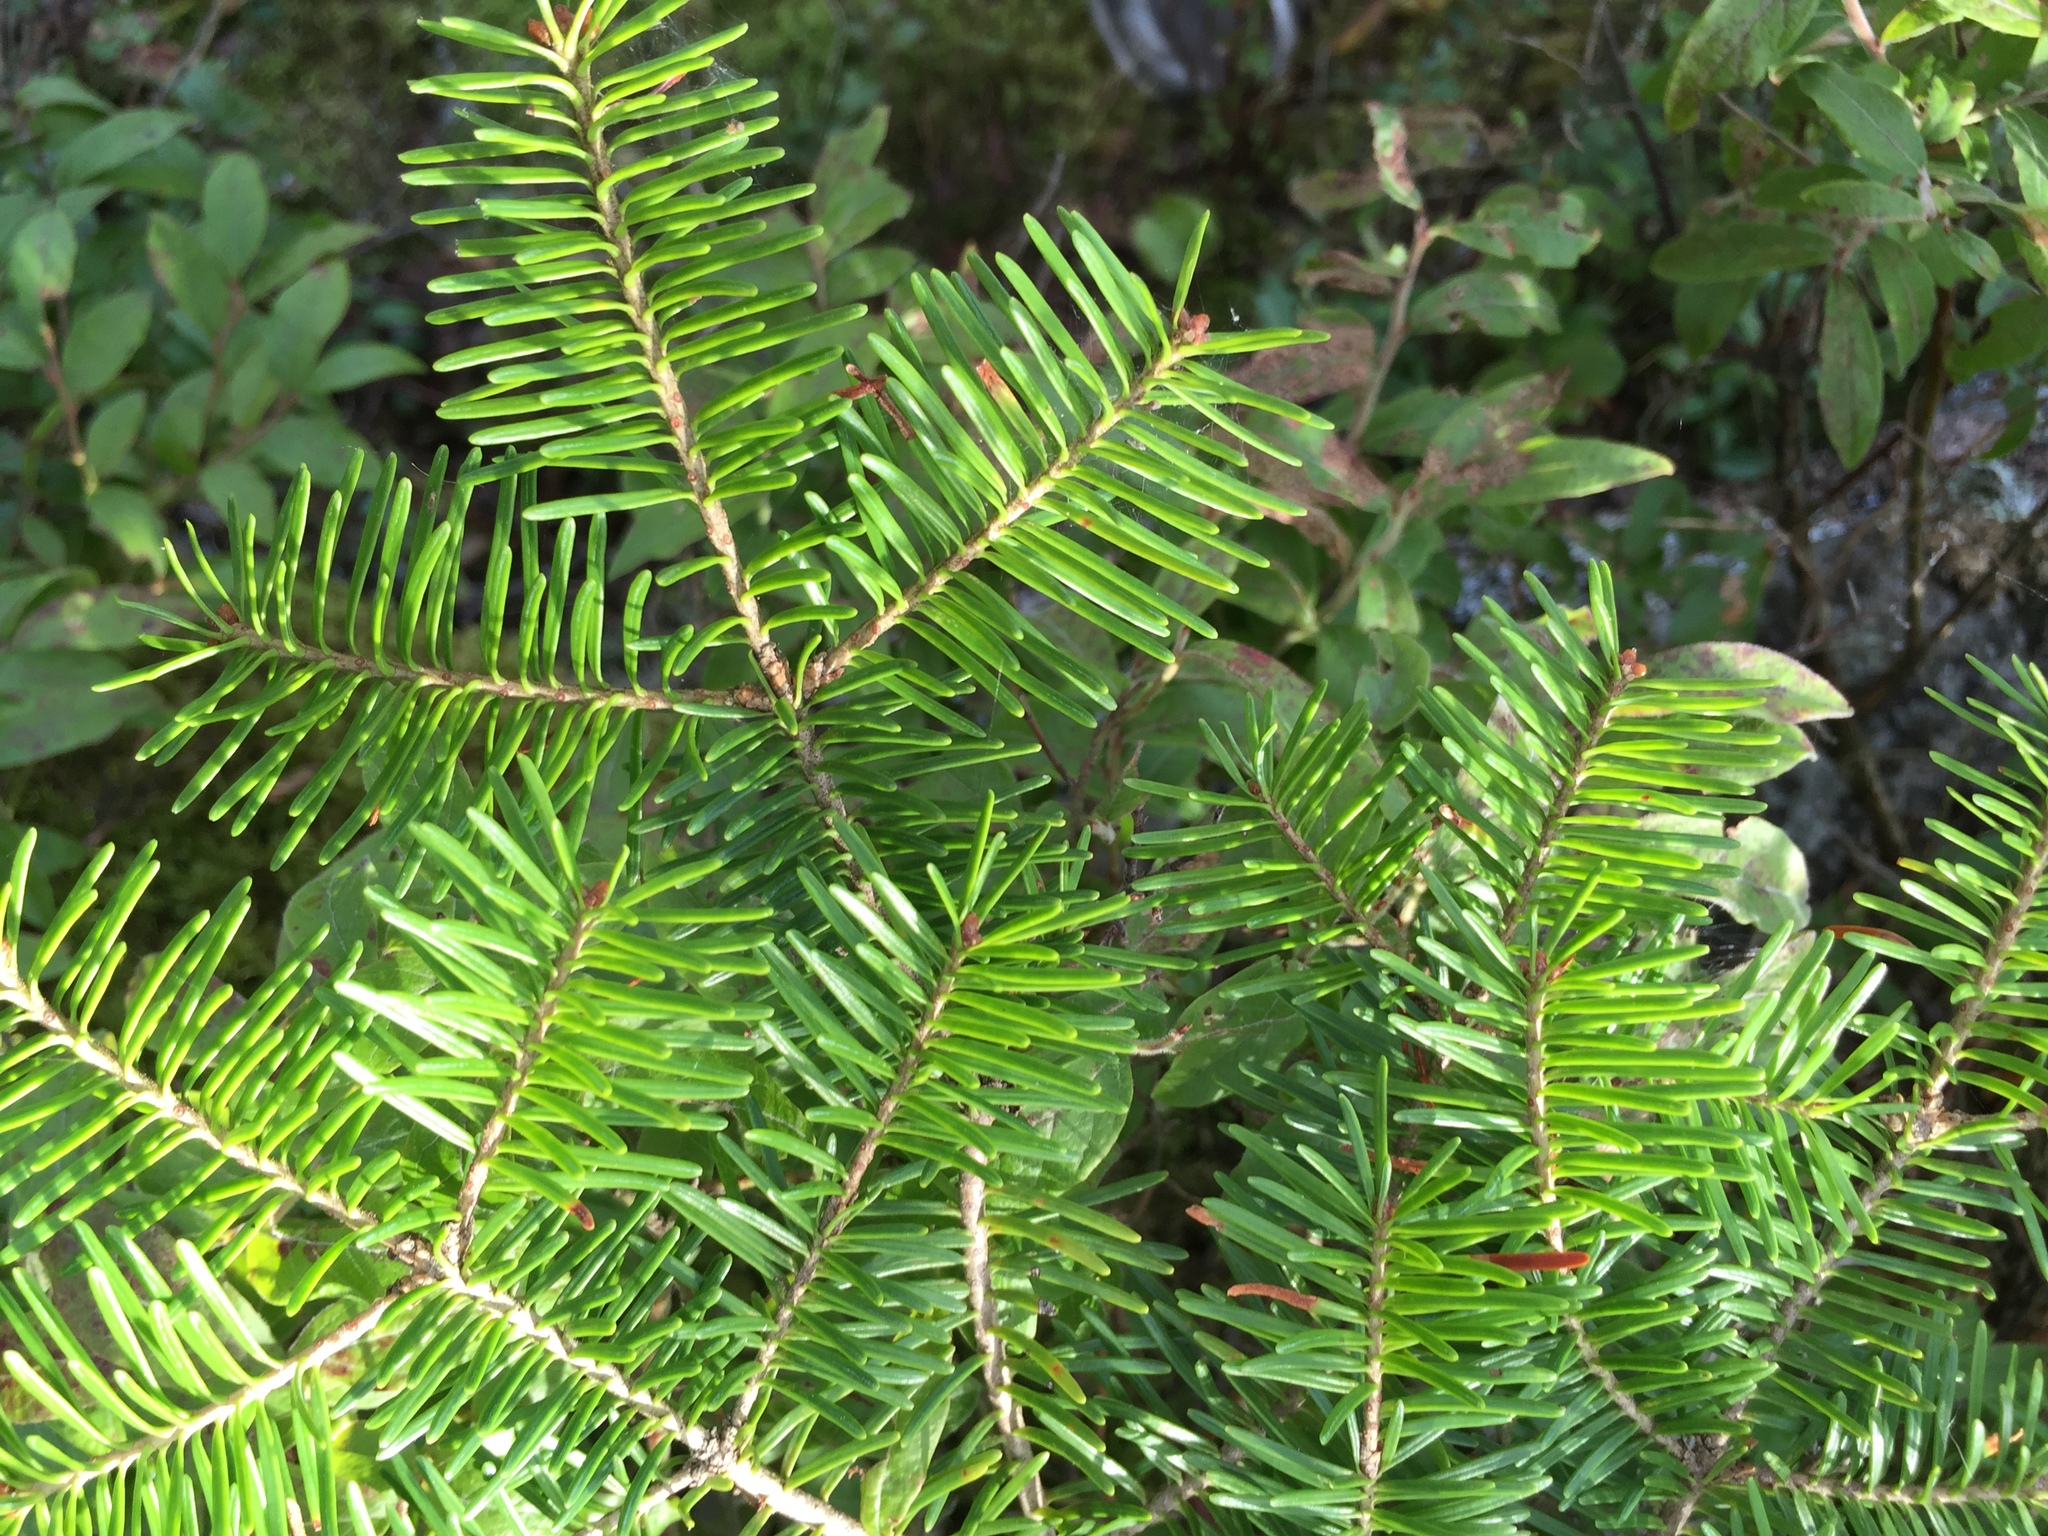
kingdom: Plantae
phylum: Tracheophyta
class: Pinopsida
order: Pinales
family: Pinaceae
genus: Abies
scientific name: Abies balsamea
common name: Balsam fir
